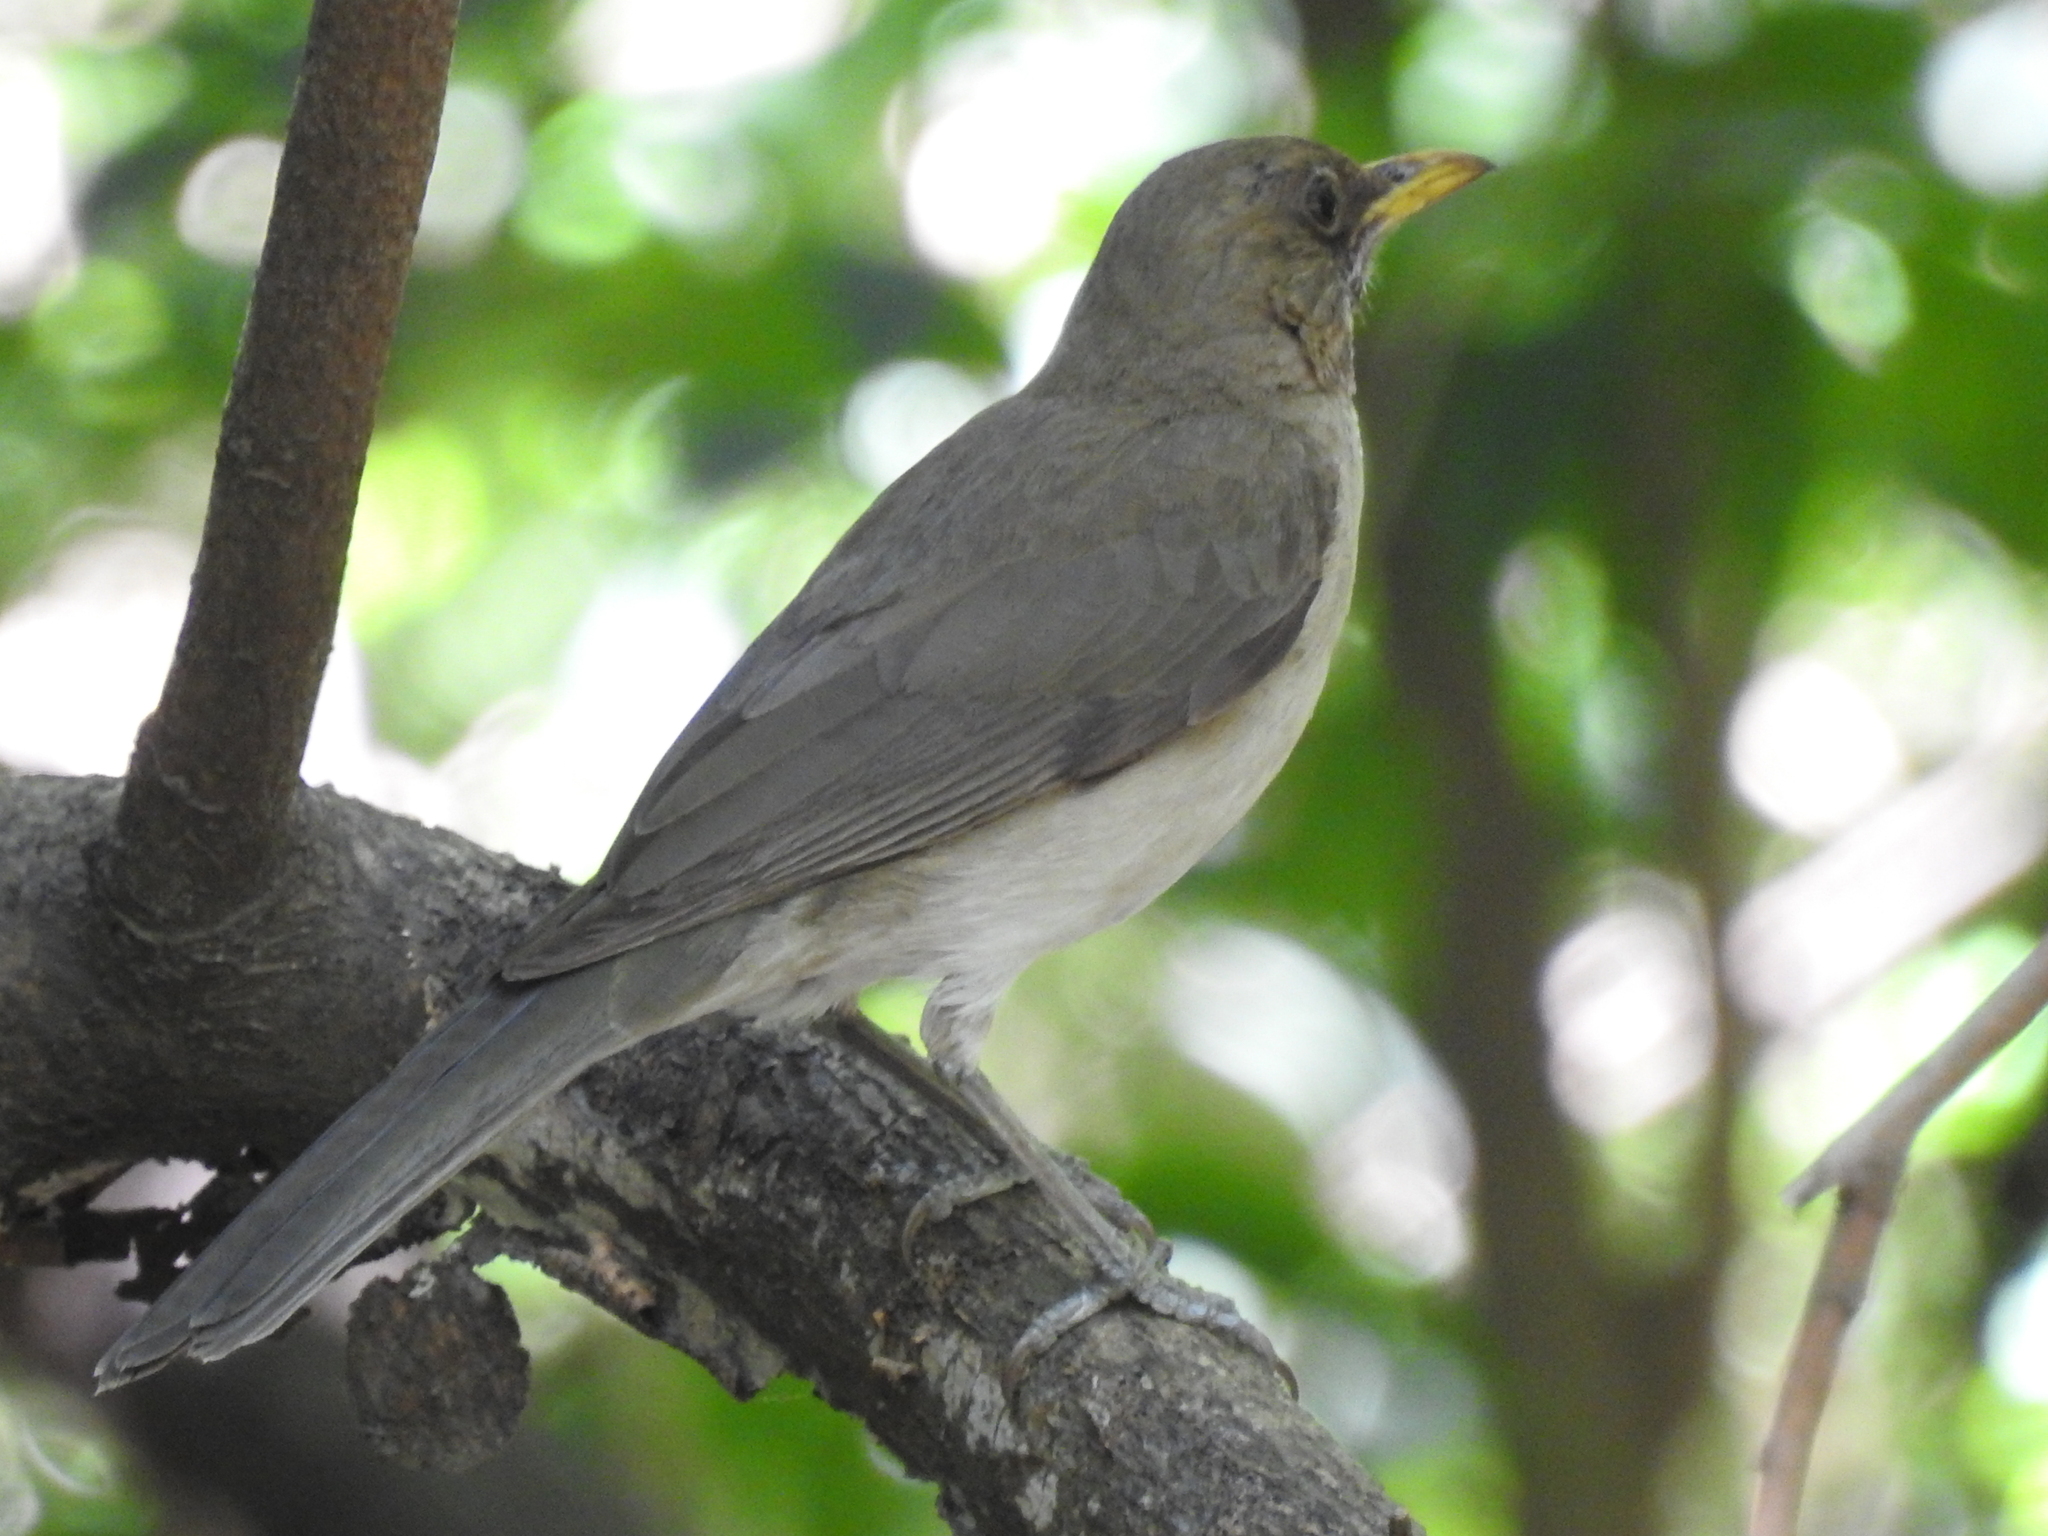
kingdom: Animalia
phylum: Chordata
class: Aves
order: Passeriformes
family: Turdidae
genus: Turdus
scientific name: Turdus amaurochalinus
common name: Creamy-bellied thrush
